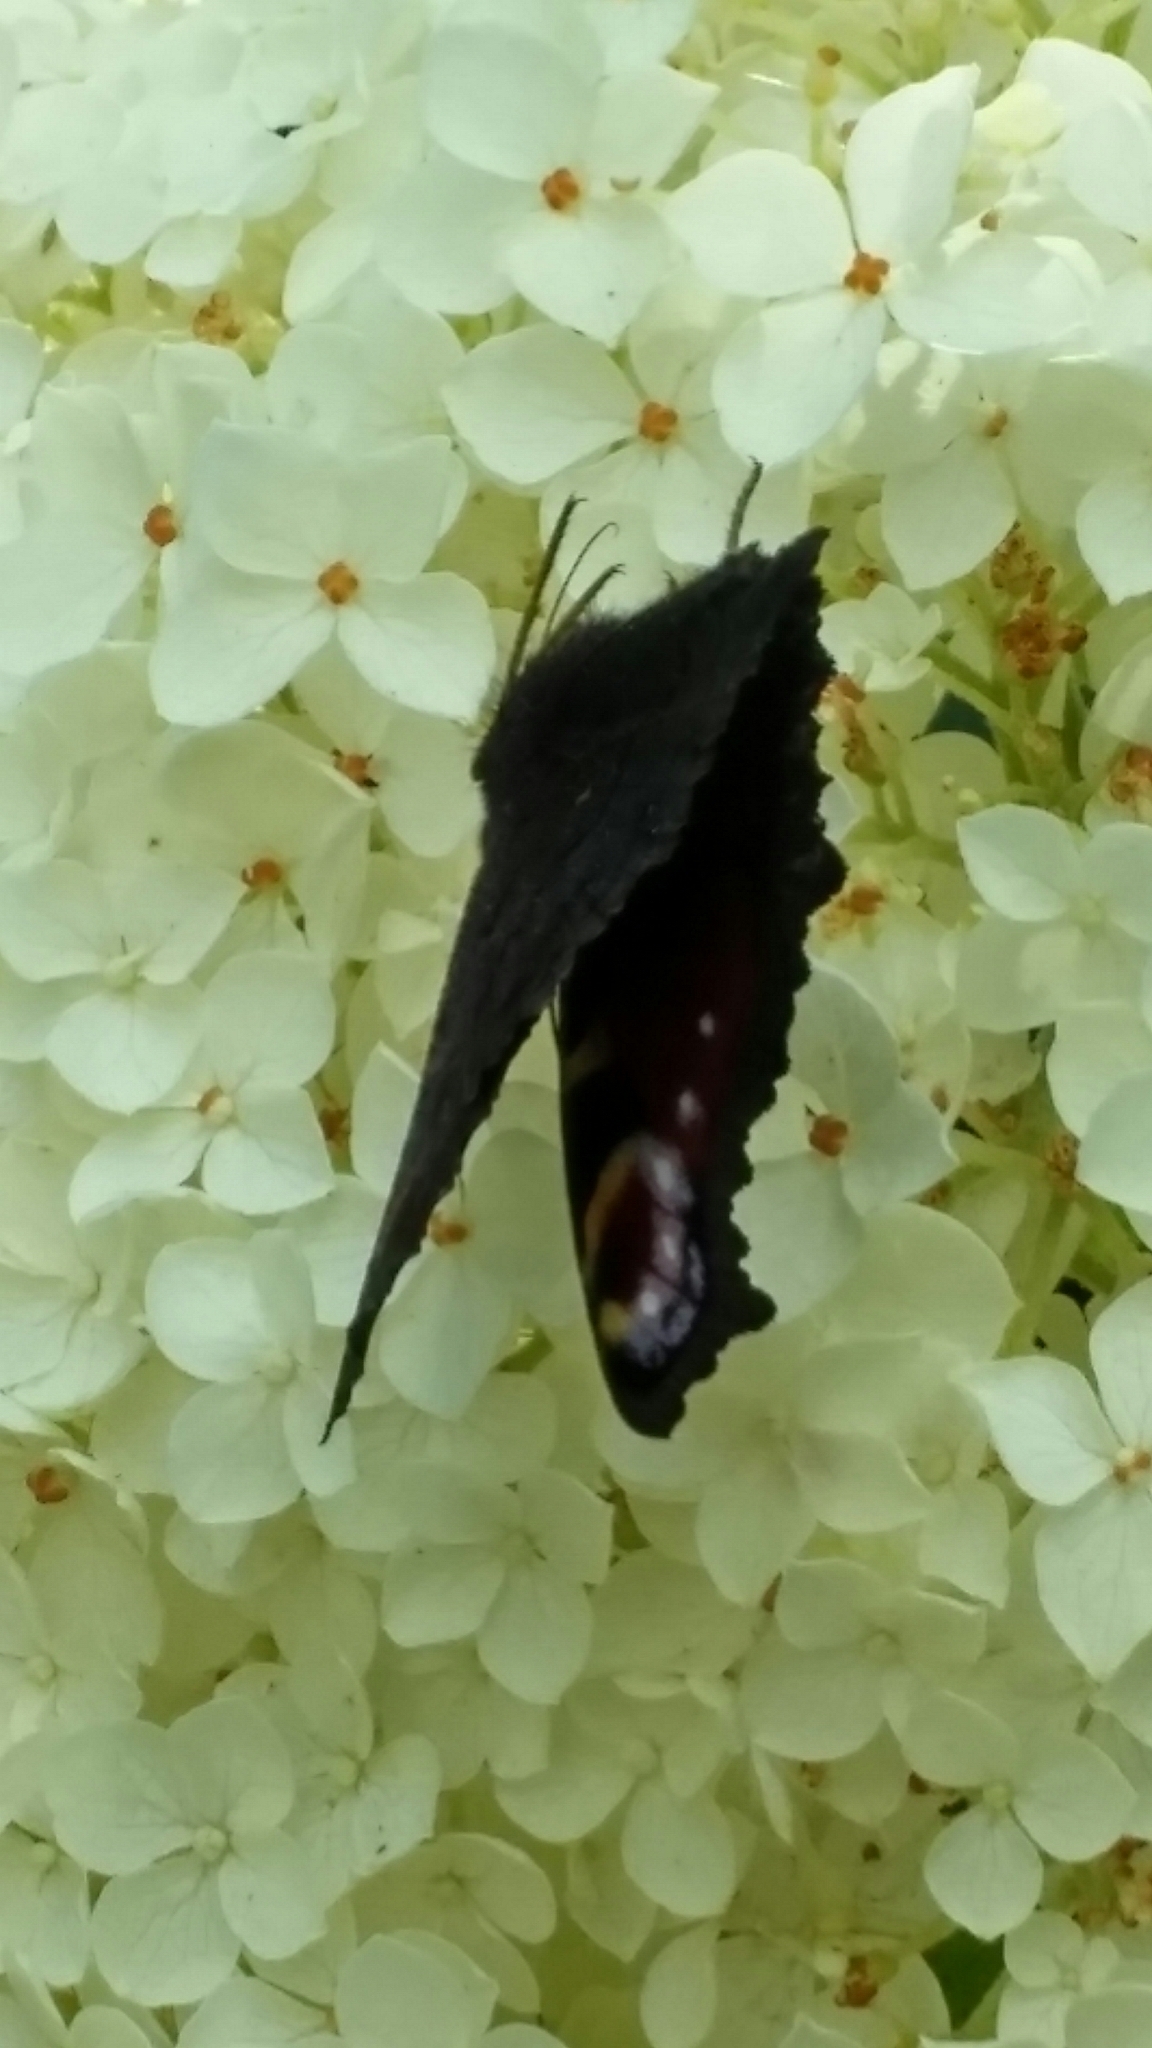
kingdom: Animalia
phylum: Arthropoda
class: Insecta
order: Lepidoptera
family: Nymphalidae
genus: Aglais
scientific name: Aglais io
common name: Peacock
